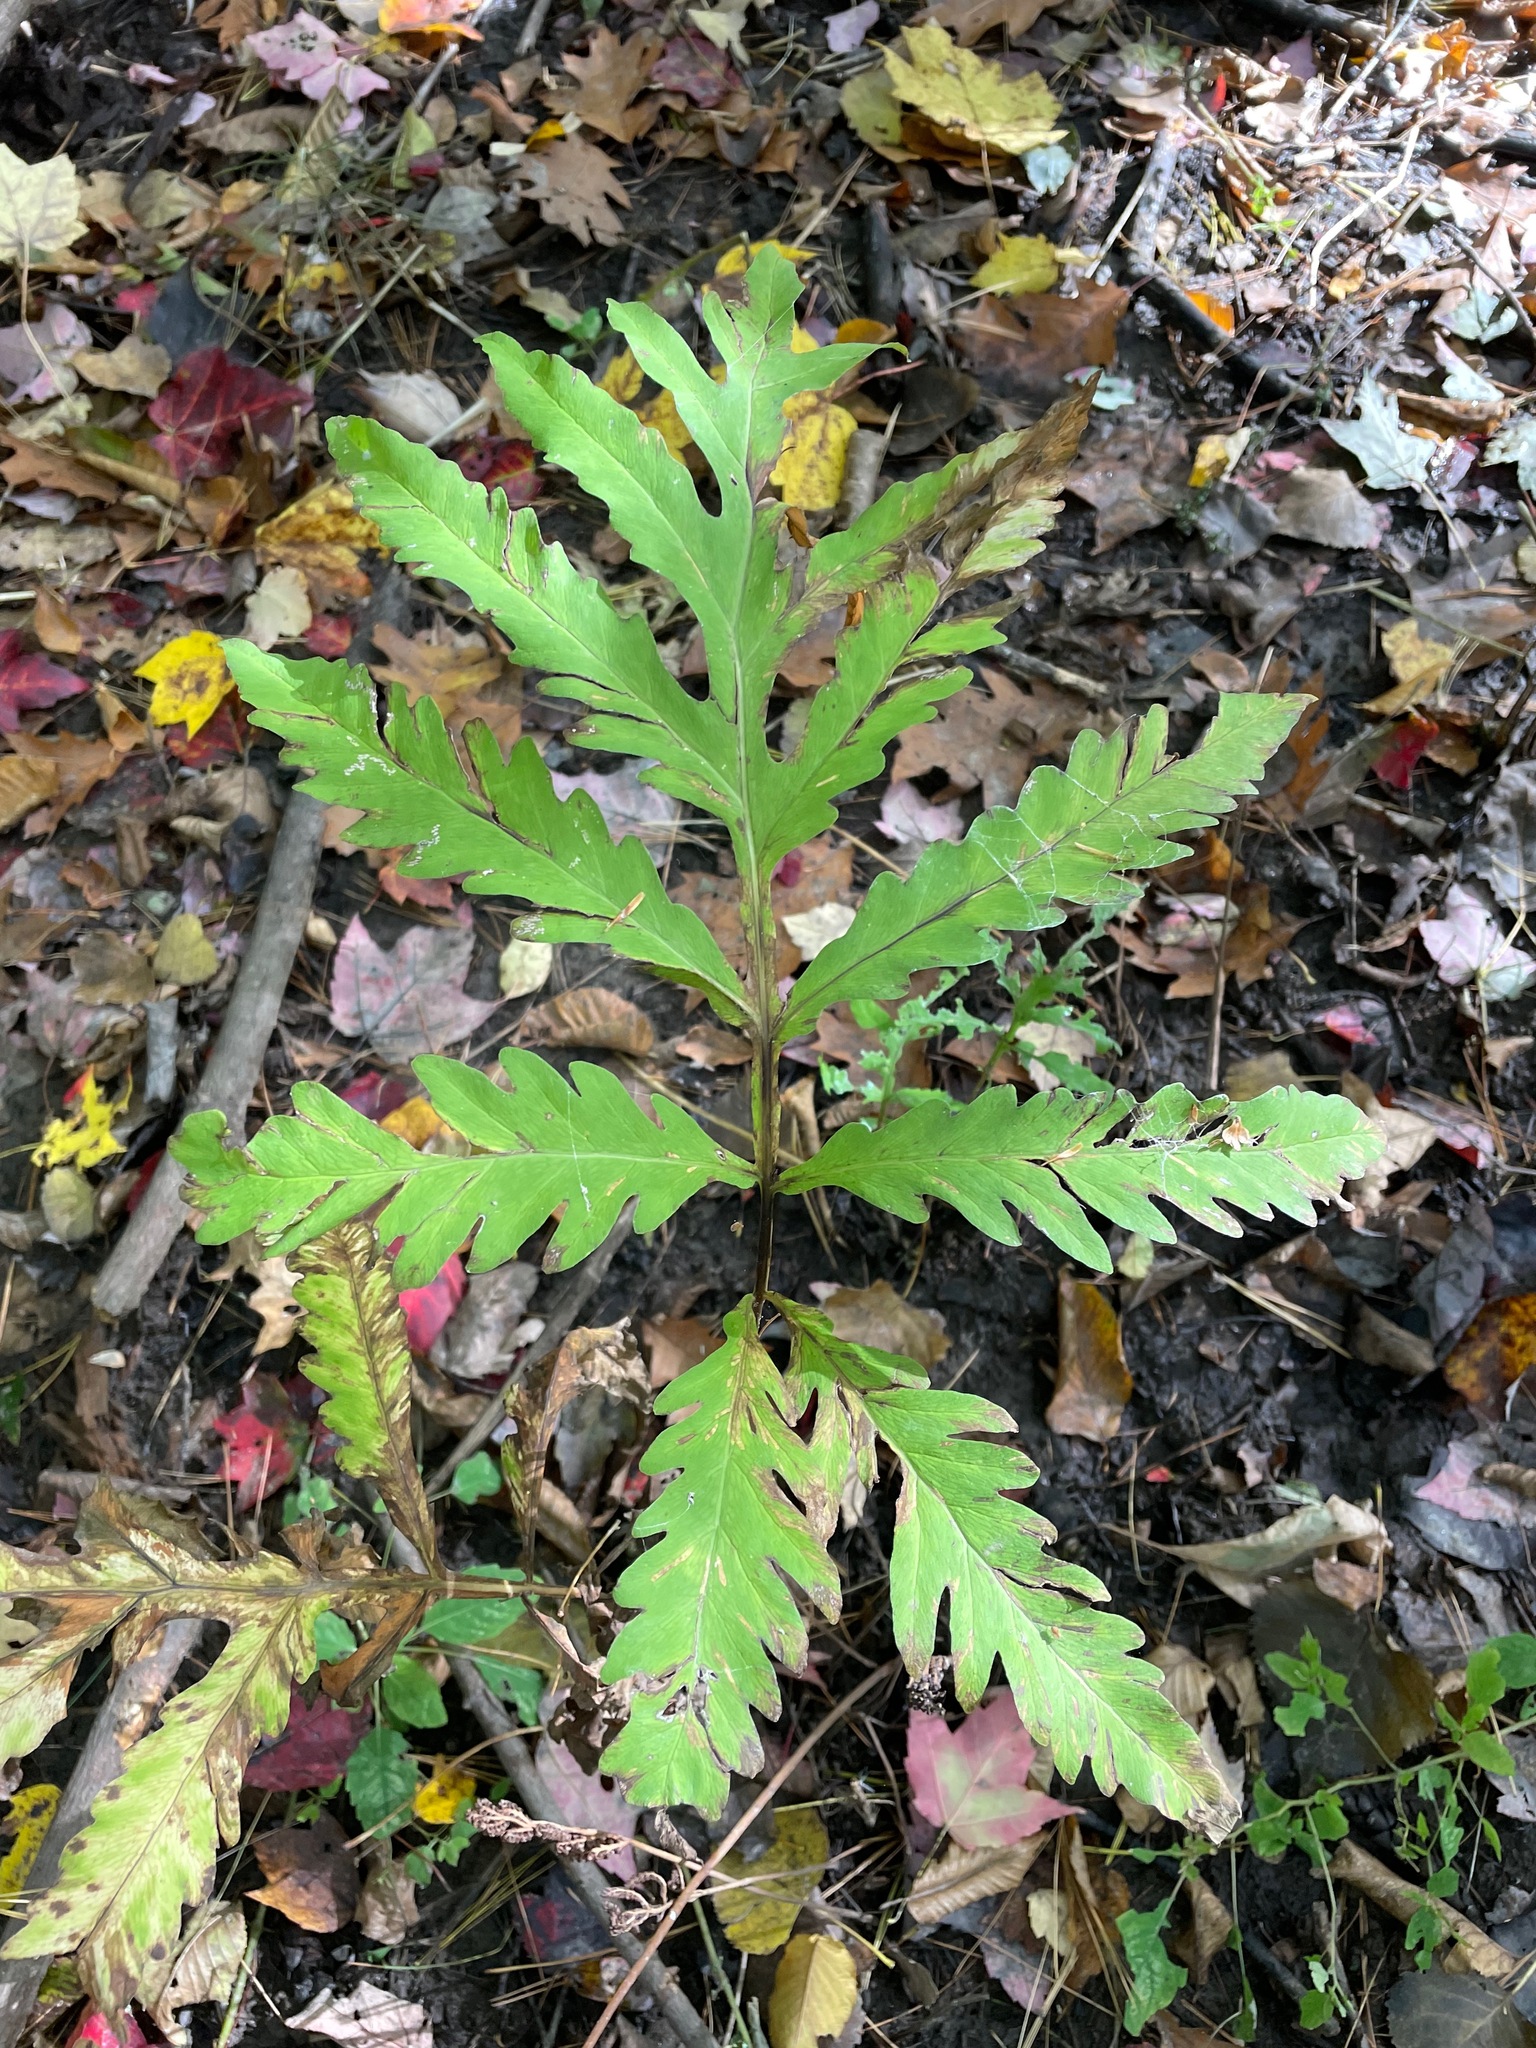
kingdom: Plantae
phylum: Tracheophyta
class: Polypodiopsida
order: Polypodiales
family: Onocleaceae
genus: Onoclea
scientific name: Onoclea sensibilis
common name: Sensitive fern
